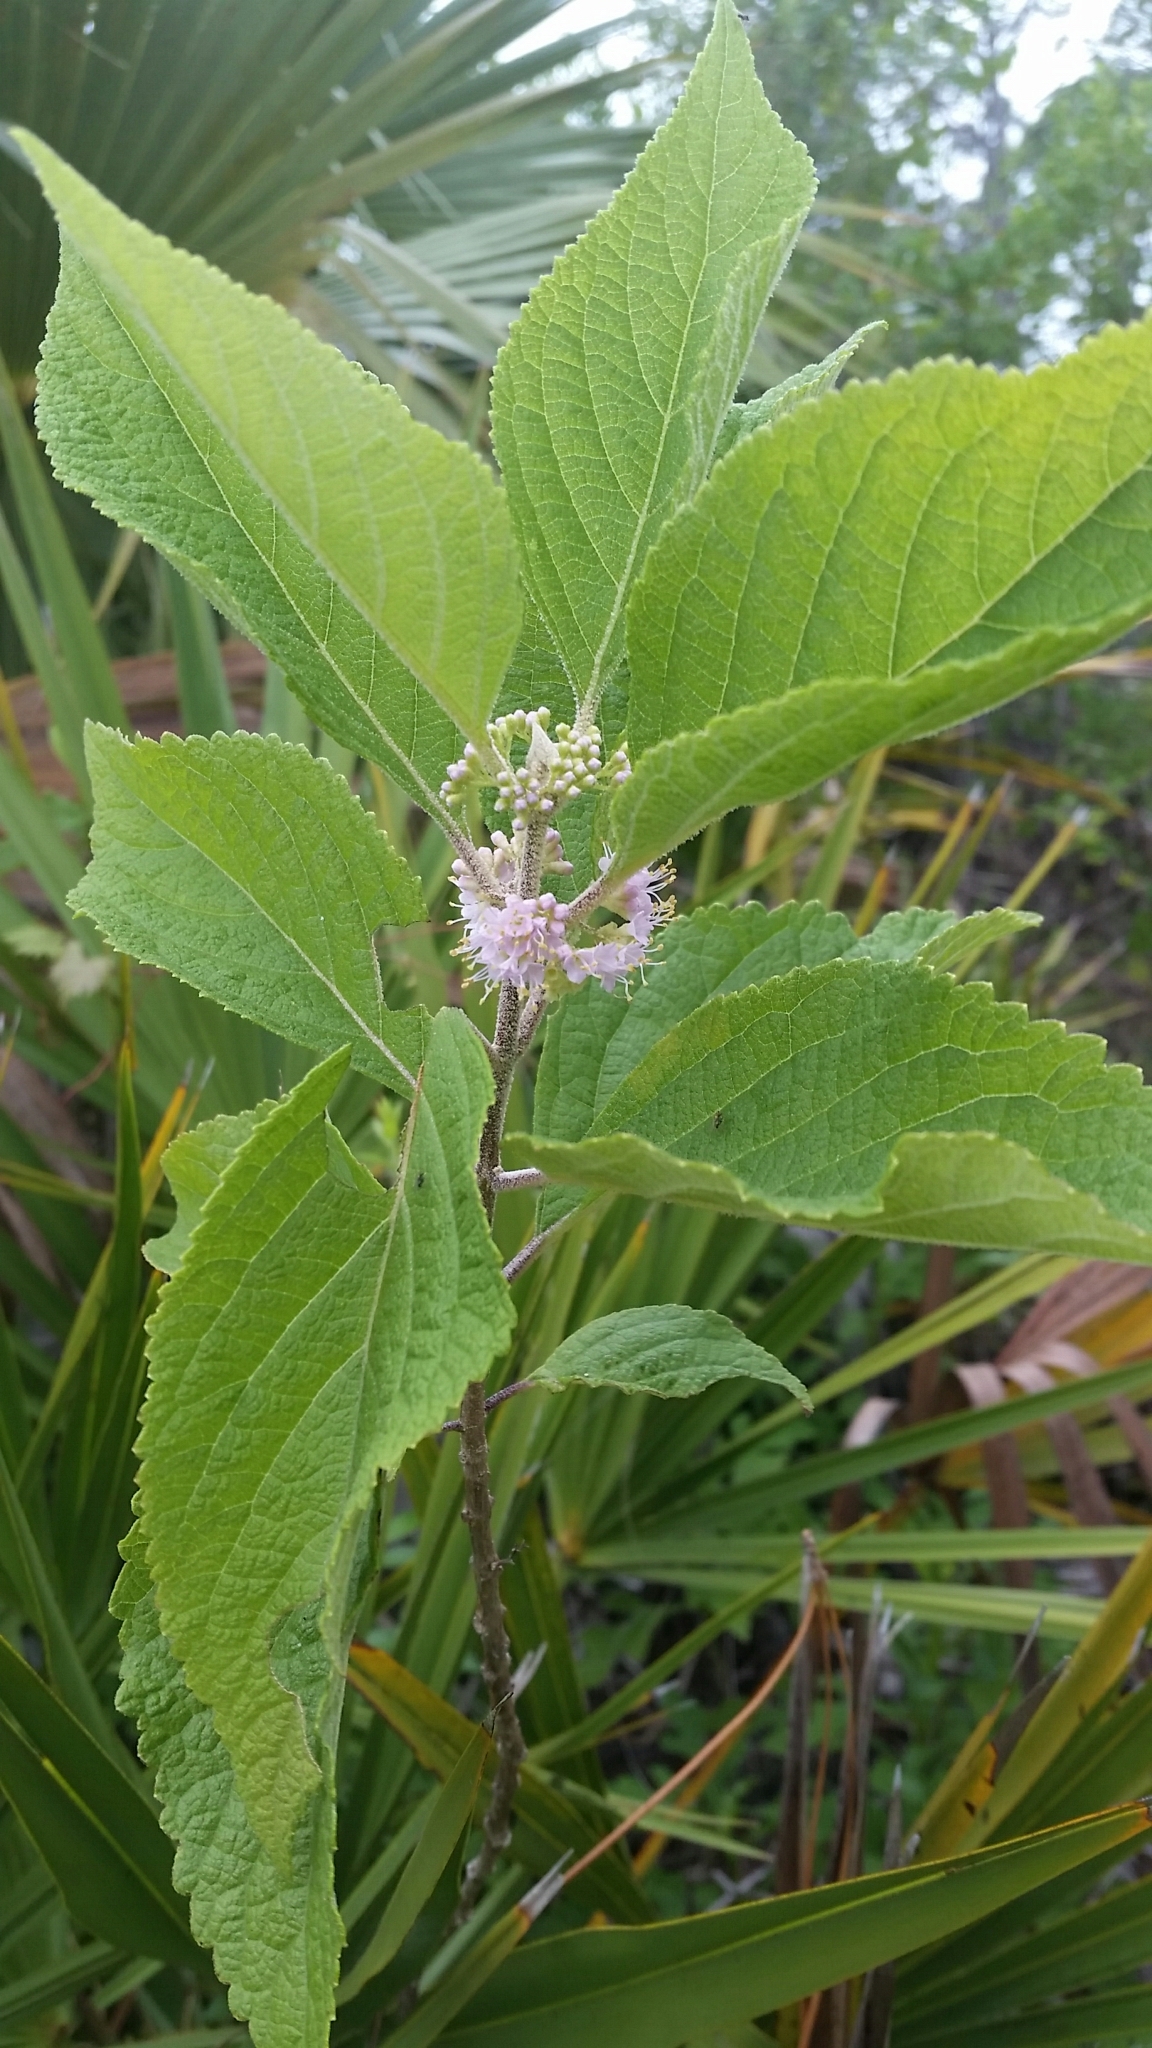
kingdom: Plantae
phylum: Tracheophyta
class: Magnoliopsida
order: Lamiales
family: Lamiaceae
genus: Callicarpa
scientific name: Callicarpa americana
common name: American beautyberry
